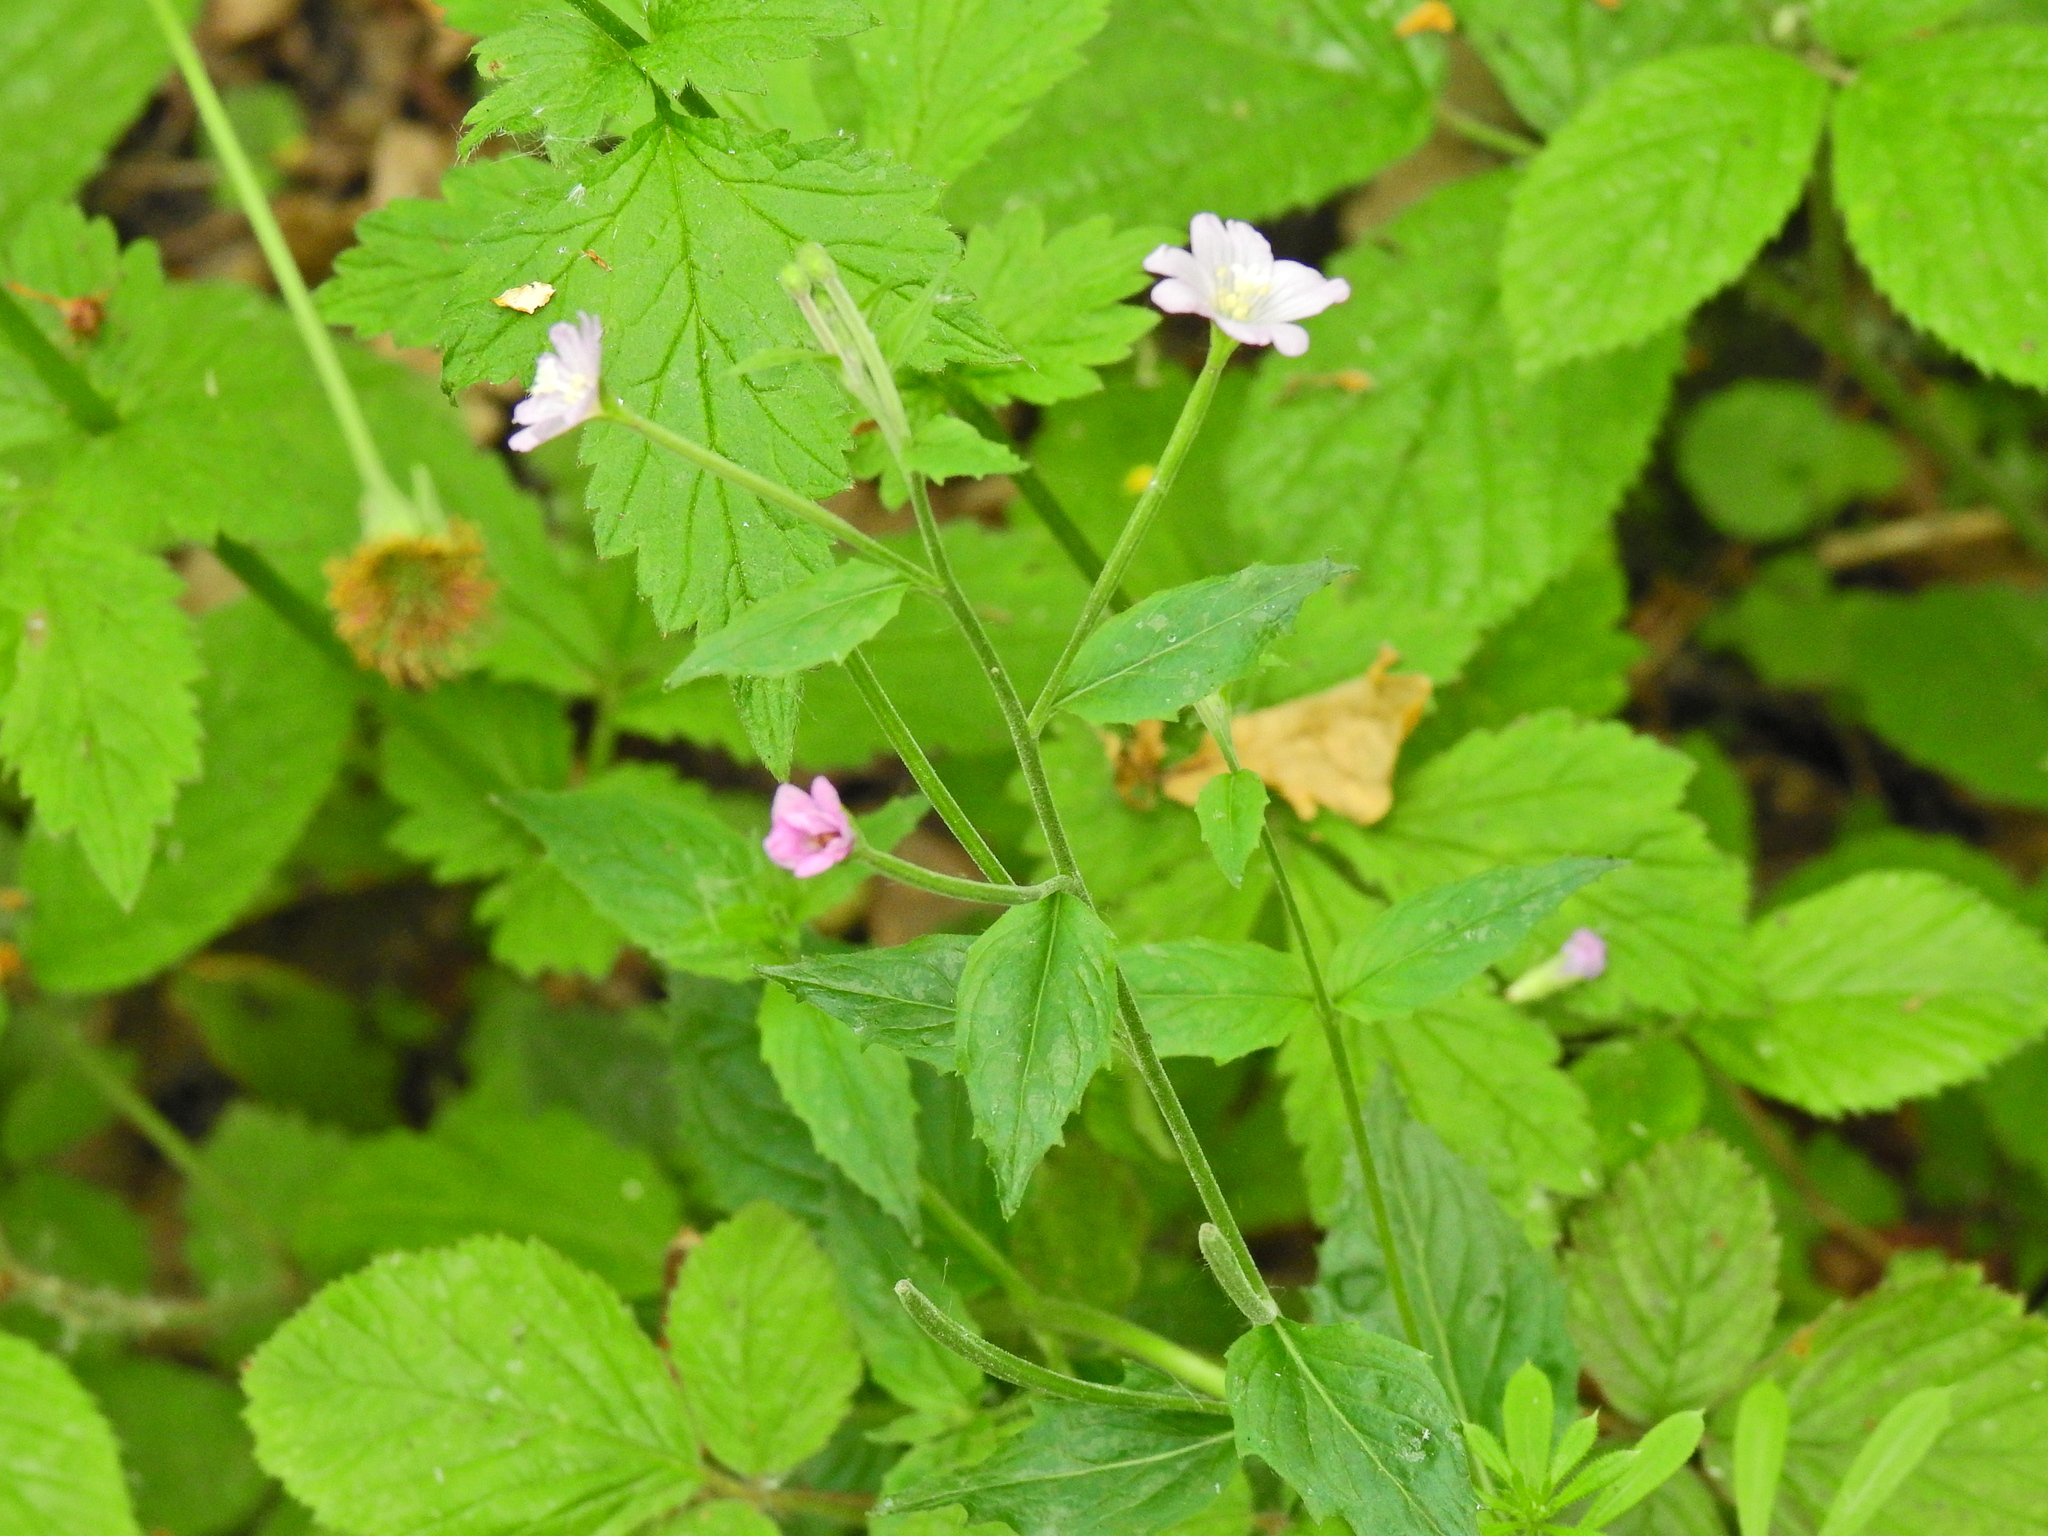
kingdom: Plantae
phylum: Tracheophyta
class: Magnoliopsida
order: Myrtales
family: Onagraceae
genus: Epilobium
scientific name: Epilobium montanum
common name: Broad-leaved willowherb
